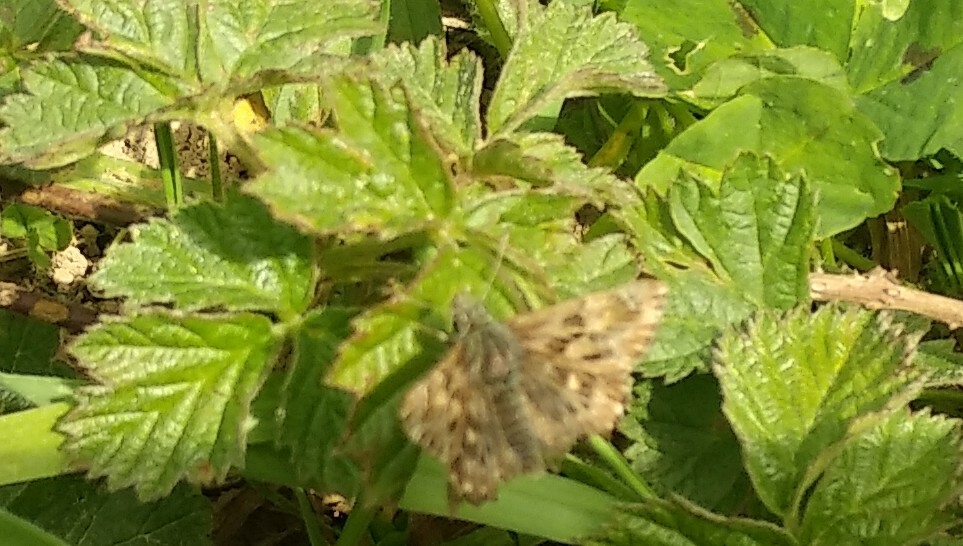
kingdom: Animalia
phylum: Arthropoda
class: Insecta
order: Lepidoptera
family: Hesperiidae
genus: Carcharodus
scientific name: Carcharodus alceae
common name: Mallow skipper
